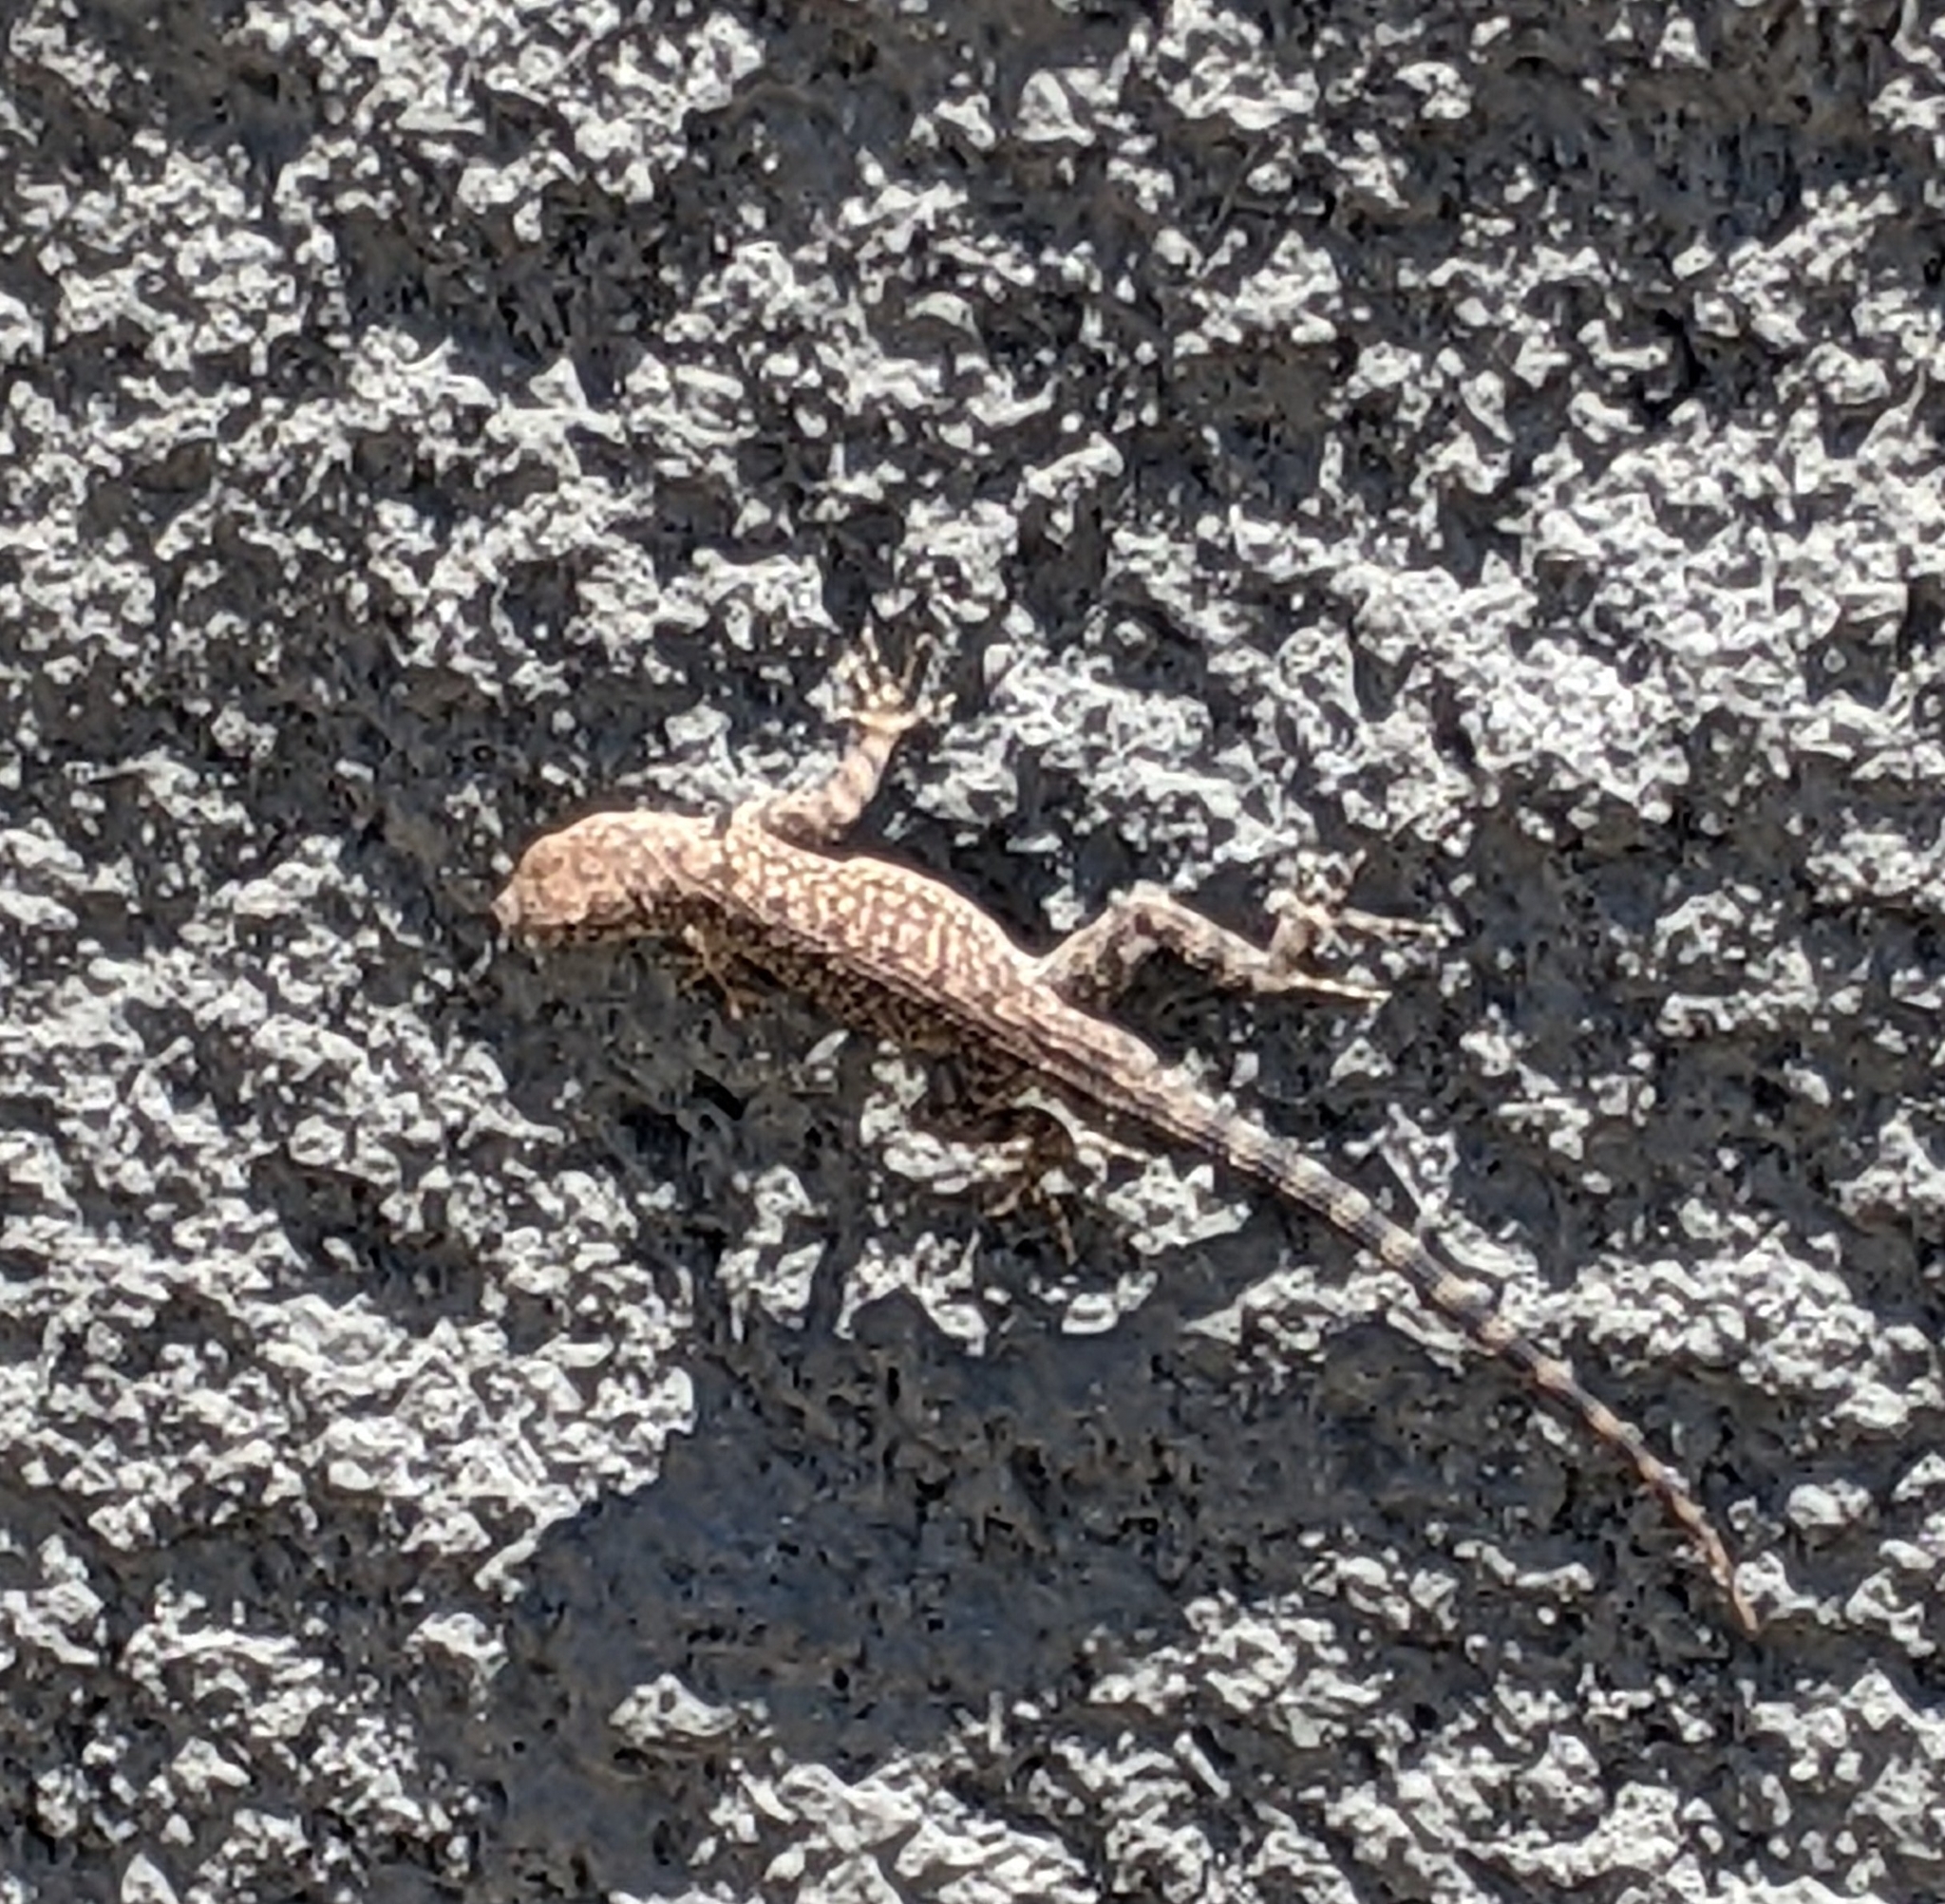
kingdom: Animalia
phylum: Chordata
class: Squamata
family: Phrynosomatidae
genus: Sceloporus
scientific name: Sceloporus merriami
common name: Canyon lizard
